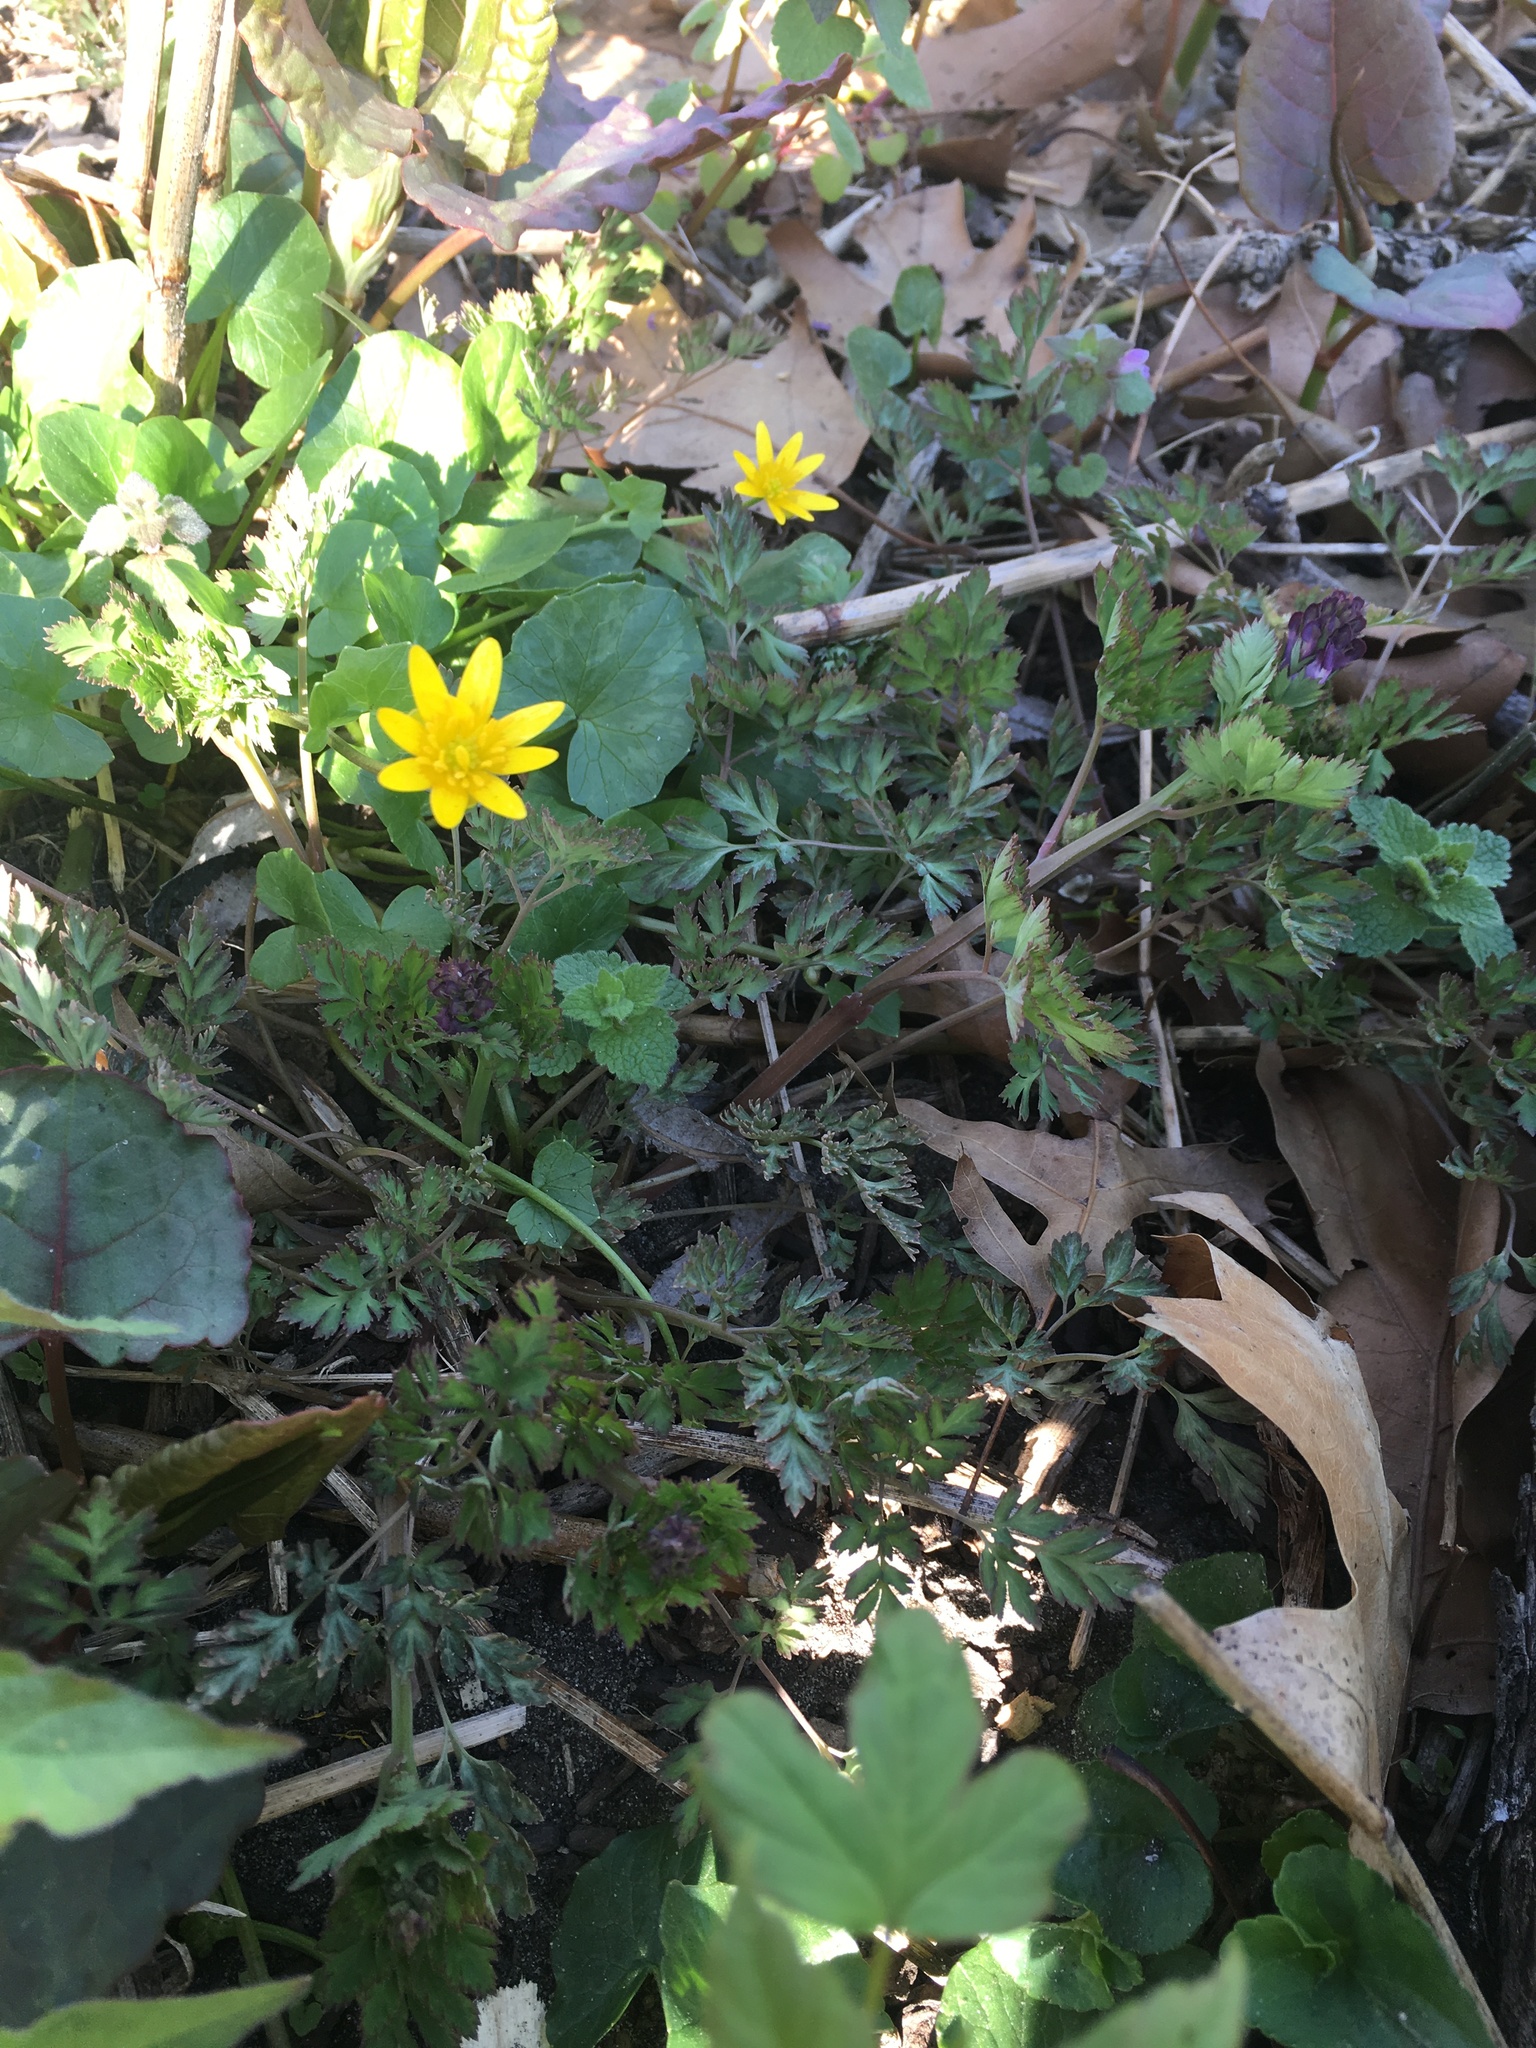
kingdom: Plantae
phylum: Tracheophyta
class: Magnoliopsida
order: Ranunculales
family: Papaveraceae
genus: Corydalis
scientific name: Corydalis incisa
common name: Incised fumewort
